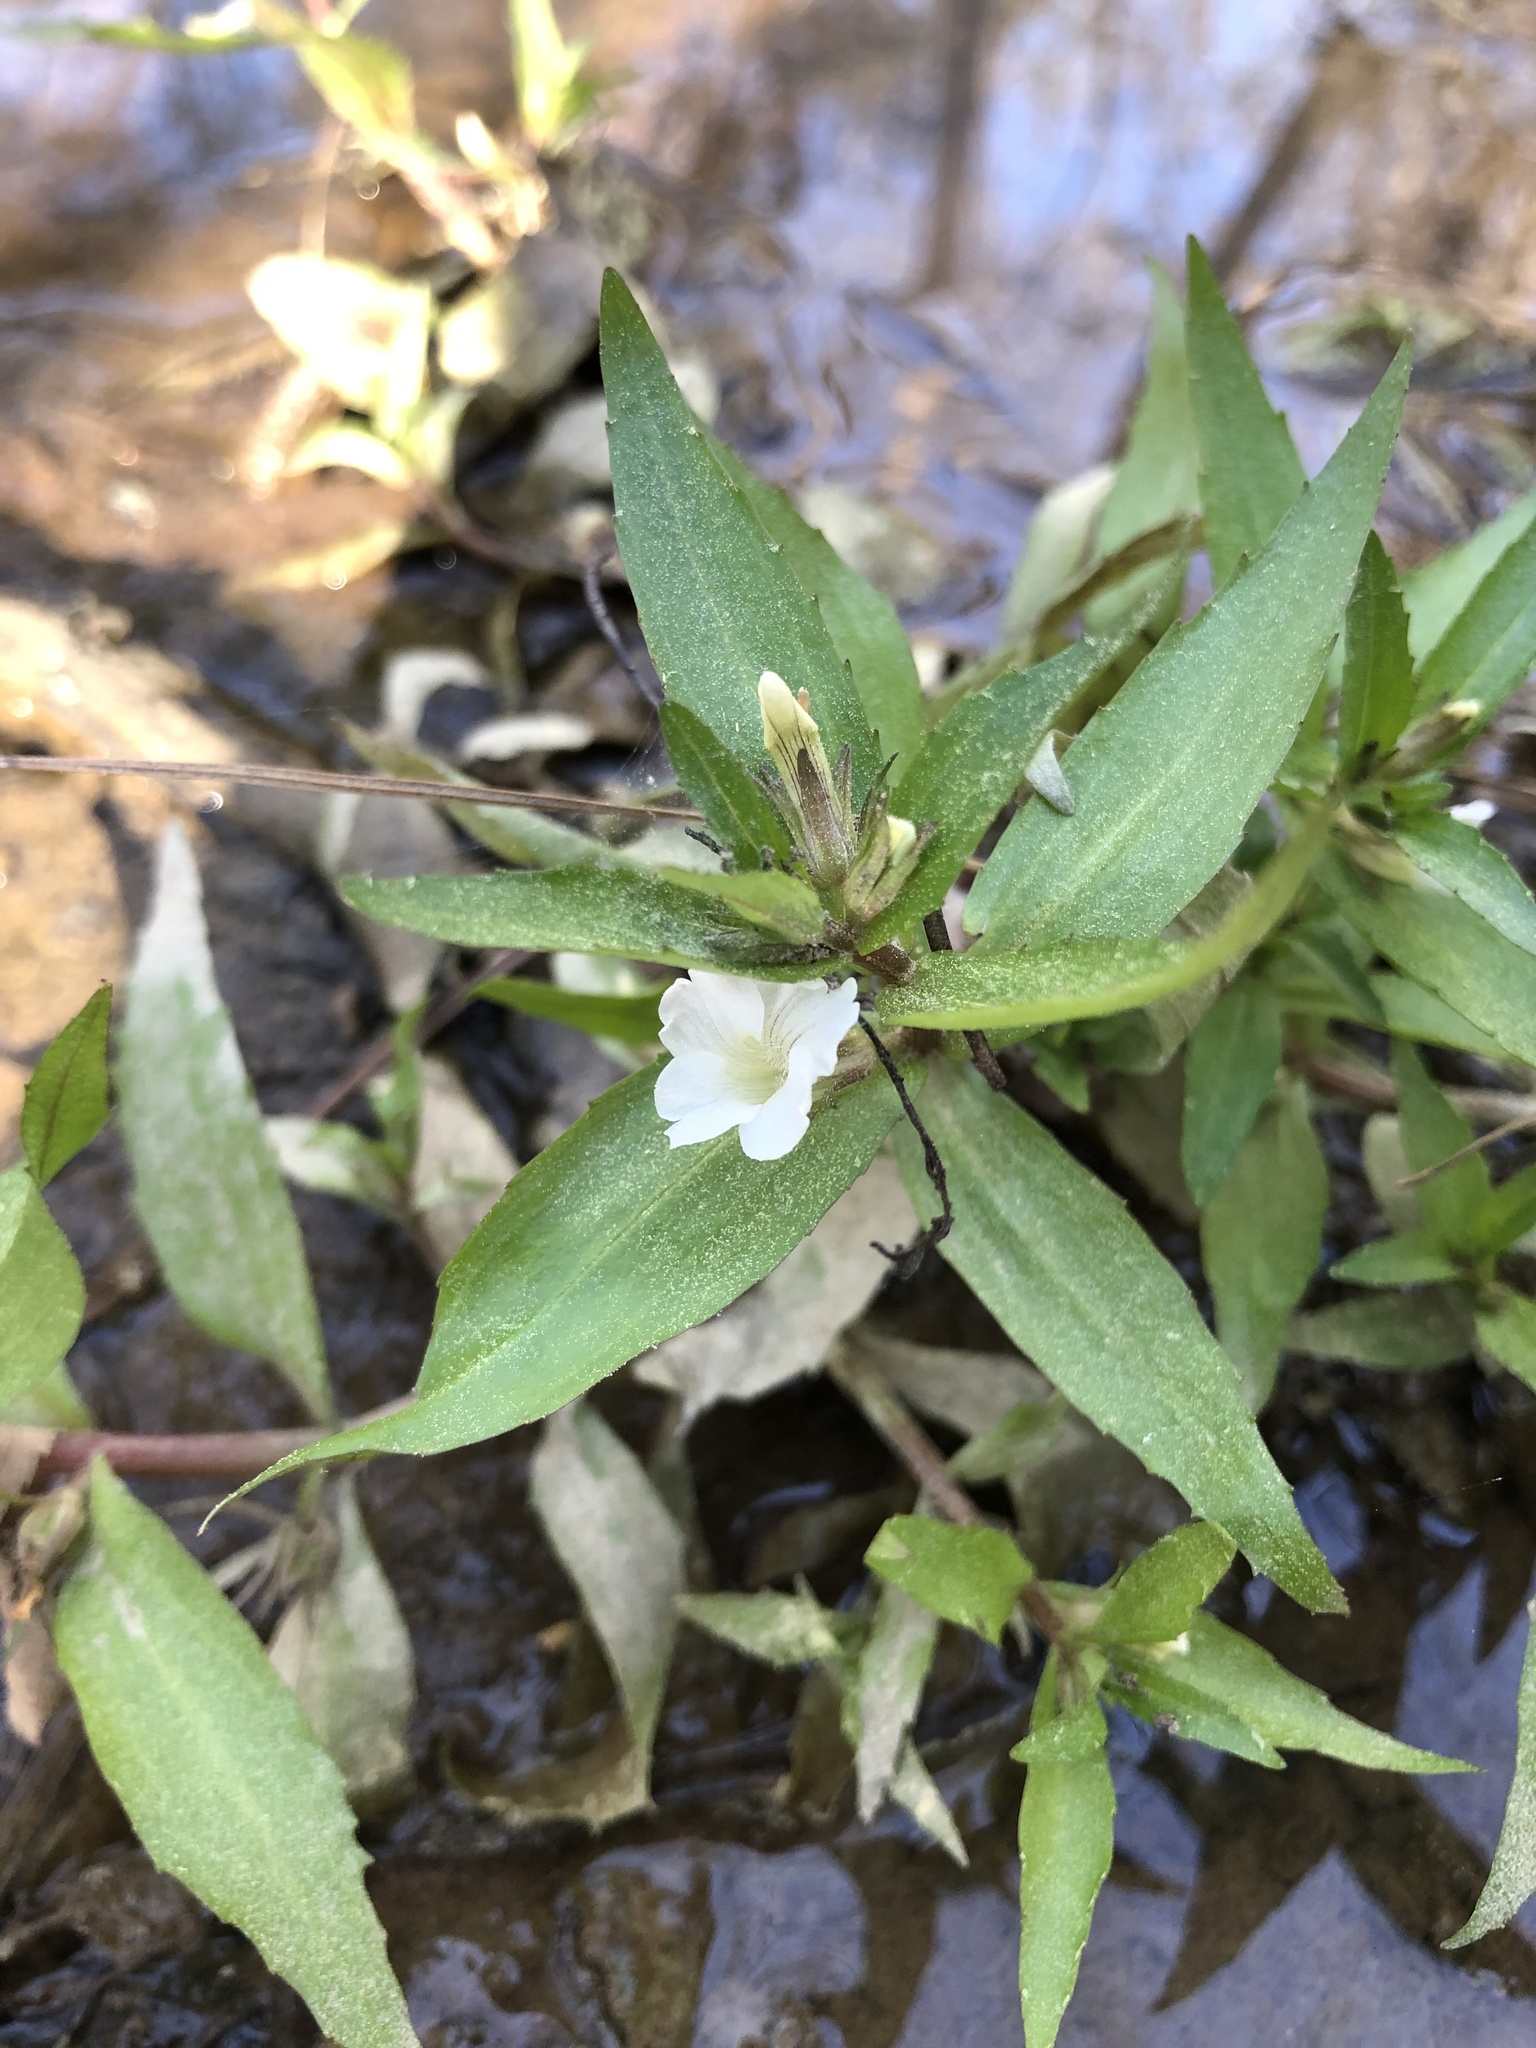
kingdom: Plantae
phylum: Tracheophyta
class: Magnoliopsida
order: Lamiales
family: Plantaginaceae
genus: Gratiola
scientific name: Gratiola virginiana
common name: Roundfruit hedgehyssop
